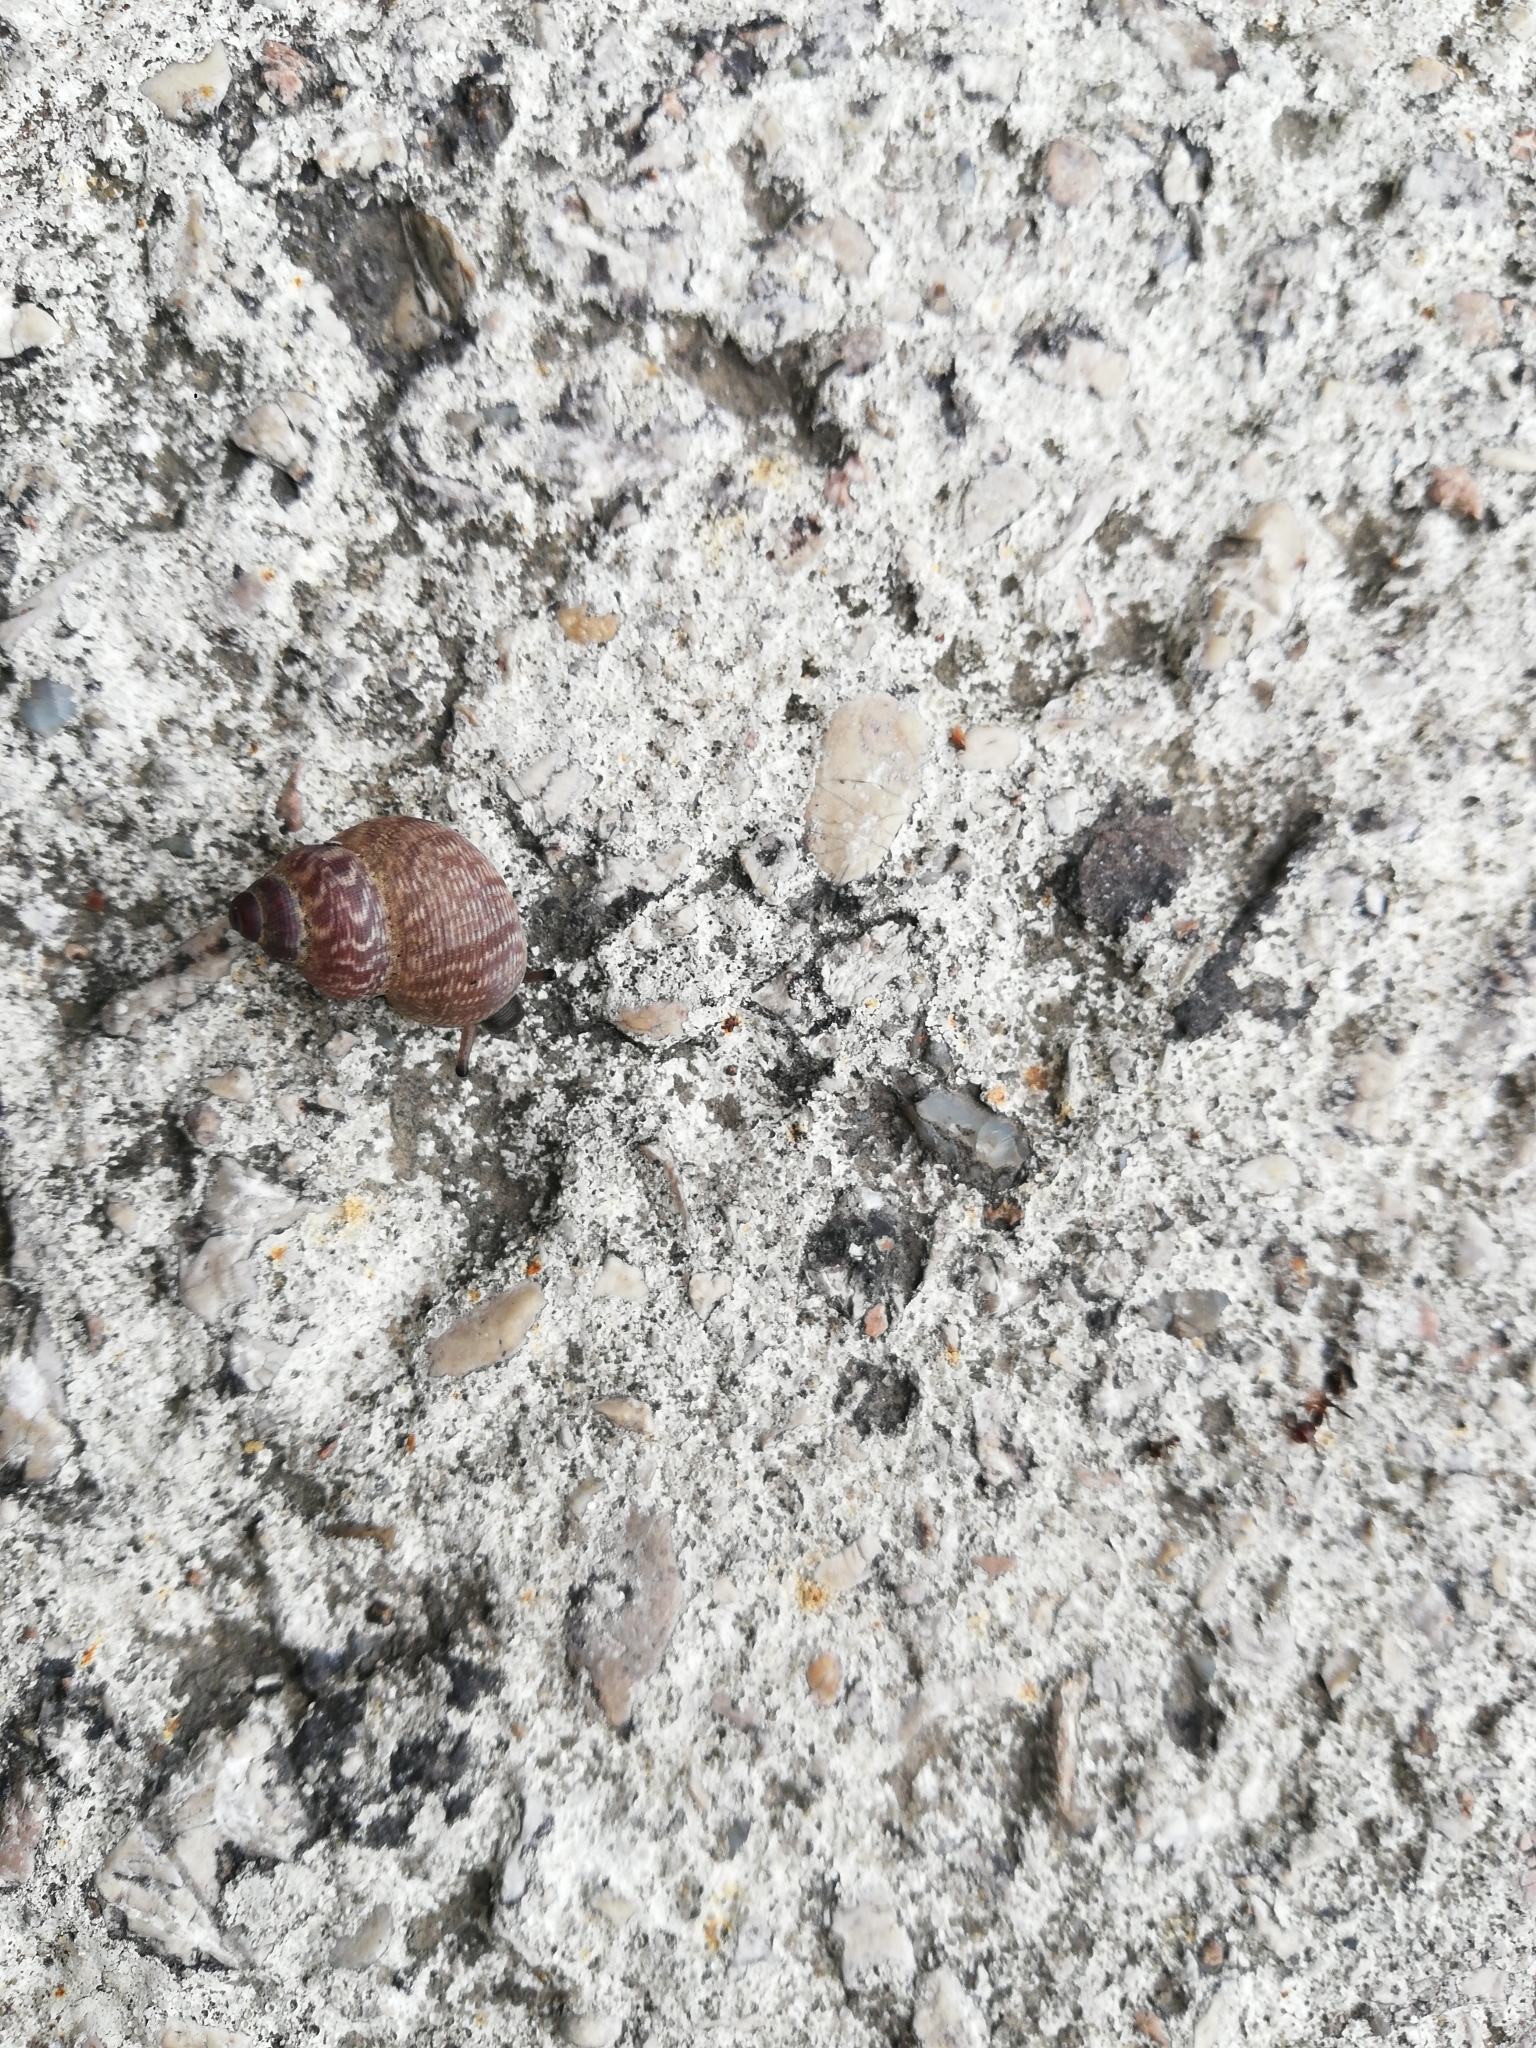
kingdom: Animalia
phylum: Mollusca
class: Gastropoda
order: Littorinimorpha
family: Pomatiidae
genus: Pomatias
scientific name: Pomatias elegans
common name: Red-mouthed snail
